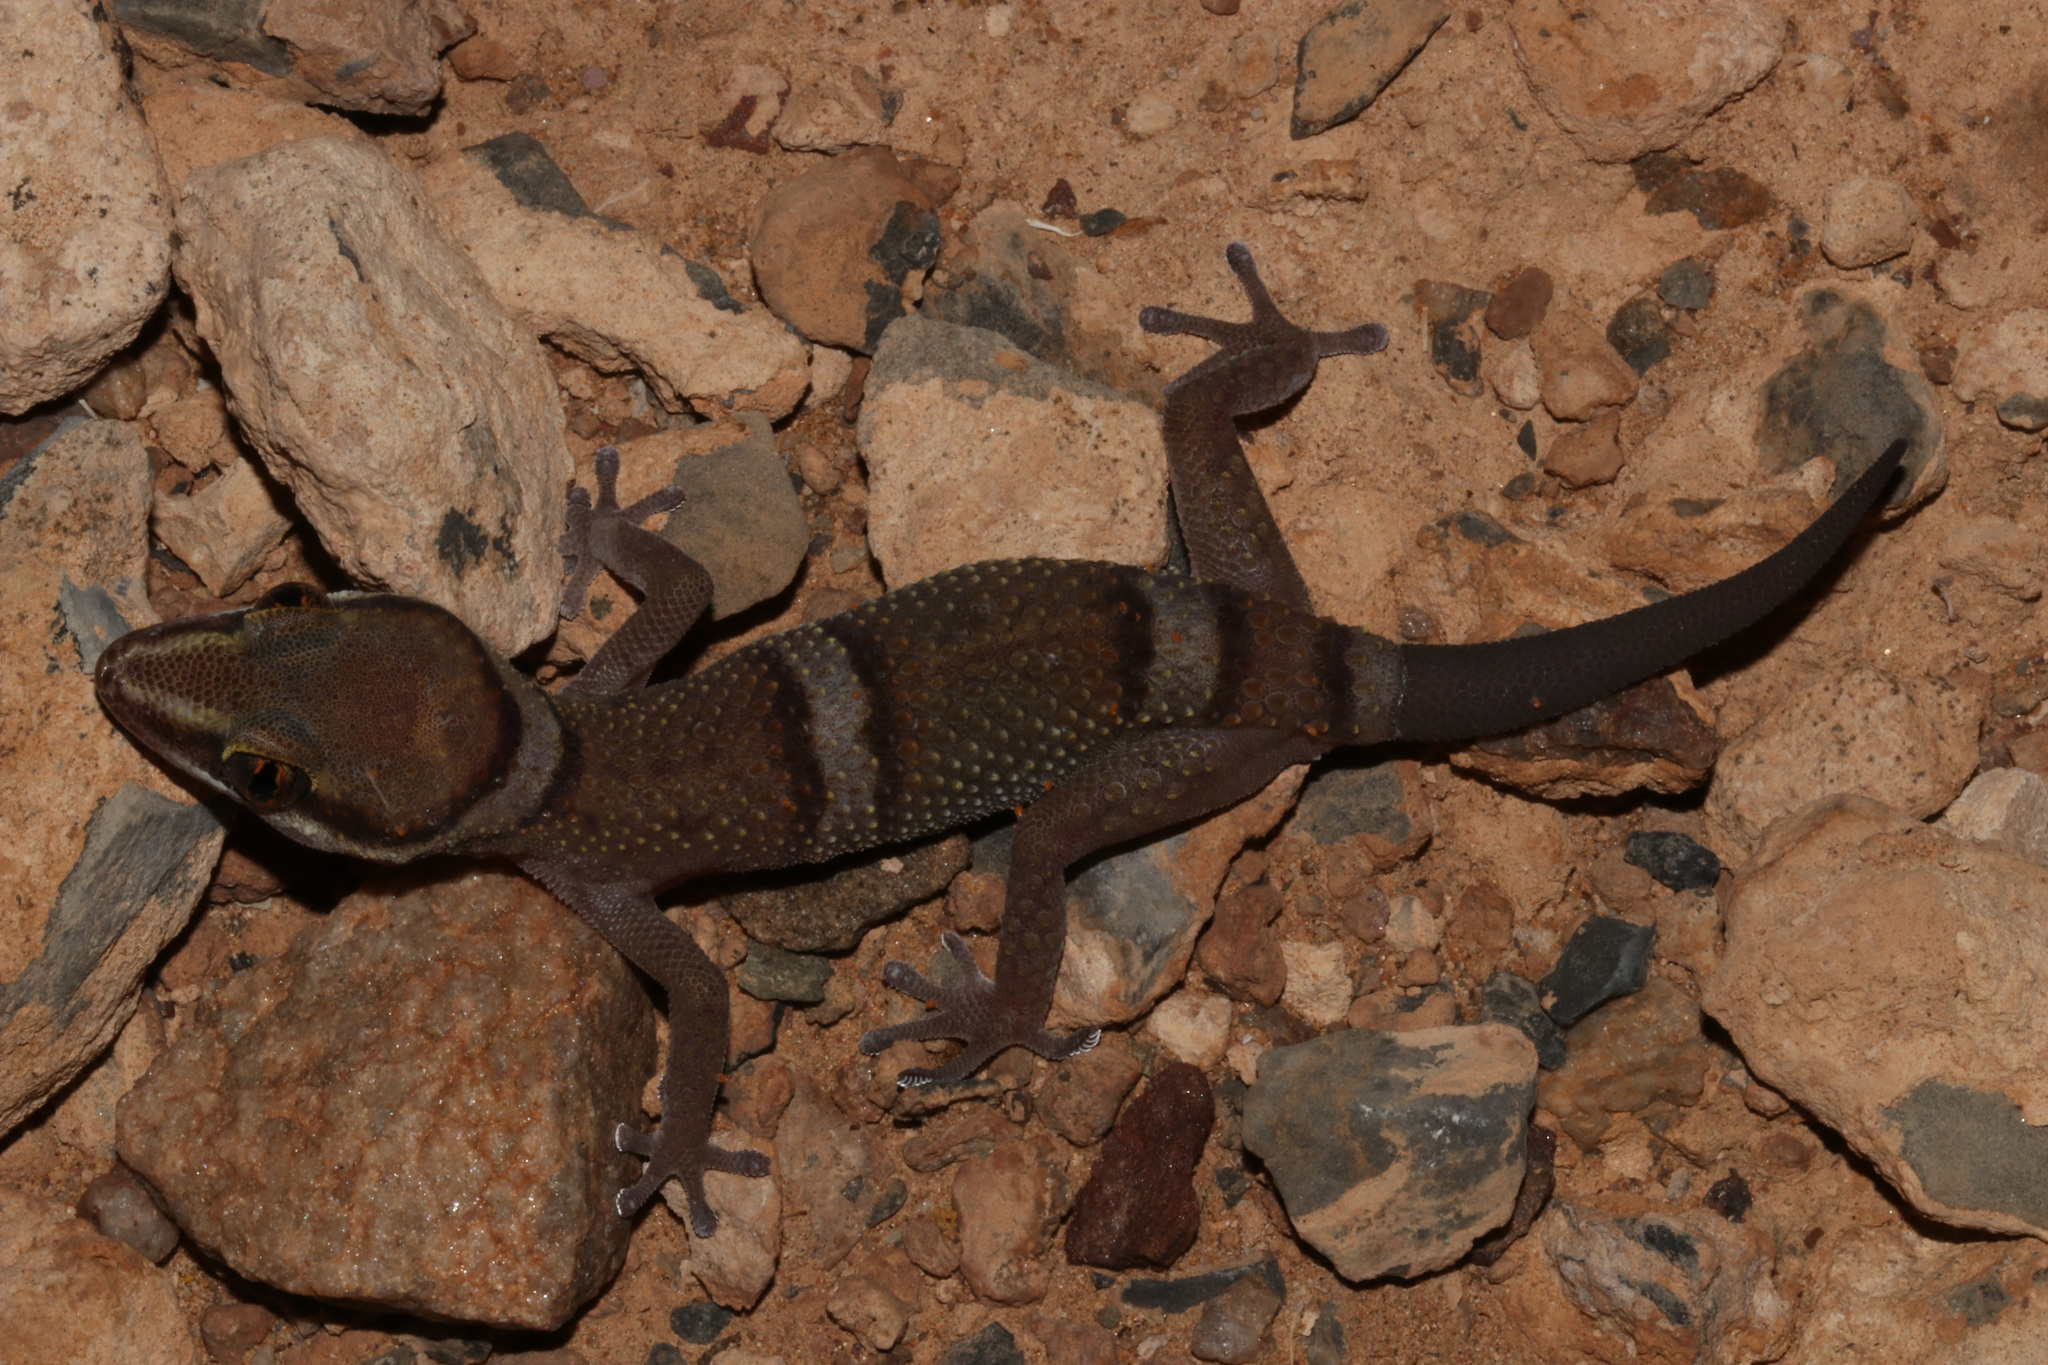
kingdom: Animalia
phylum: Chordata
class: Squamata
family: Gekkonidae
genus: Pachydactylus
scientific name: Pachydactylus atorquatus
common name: Augrabies gecko
